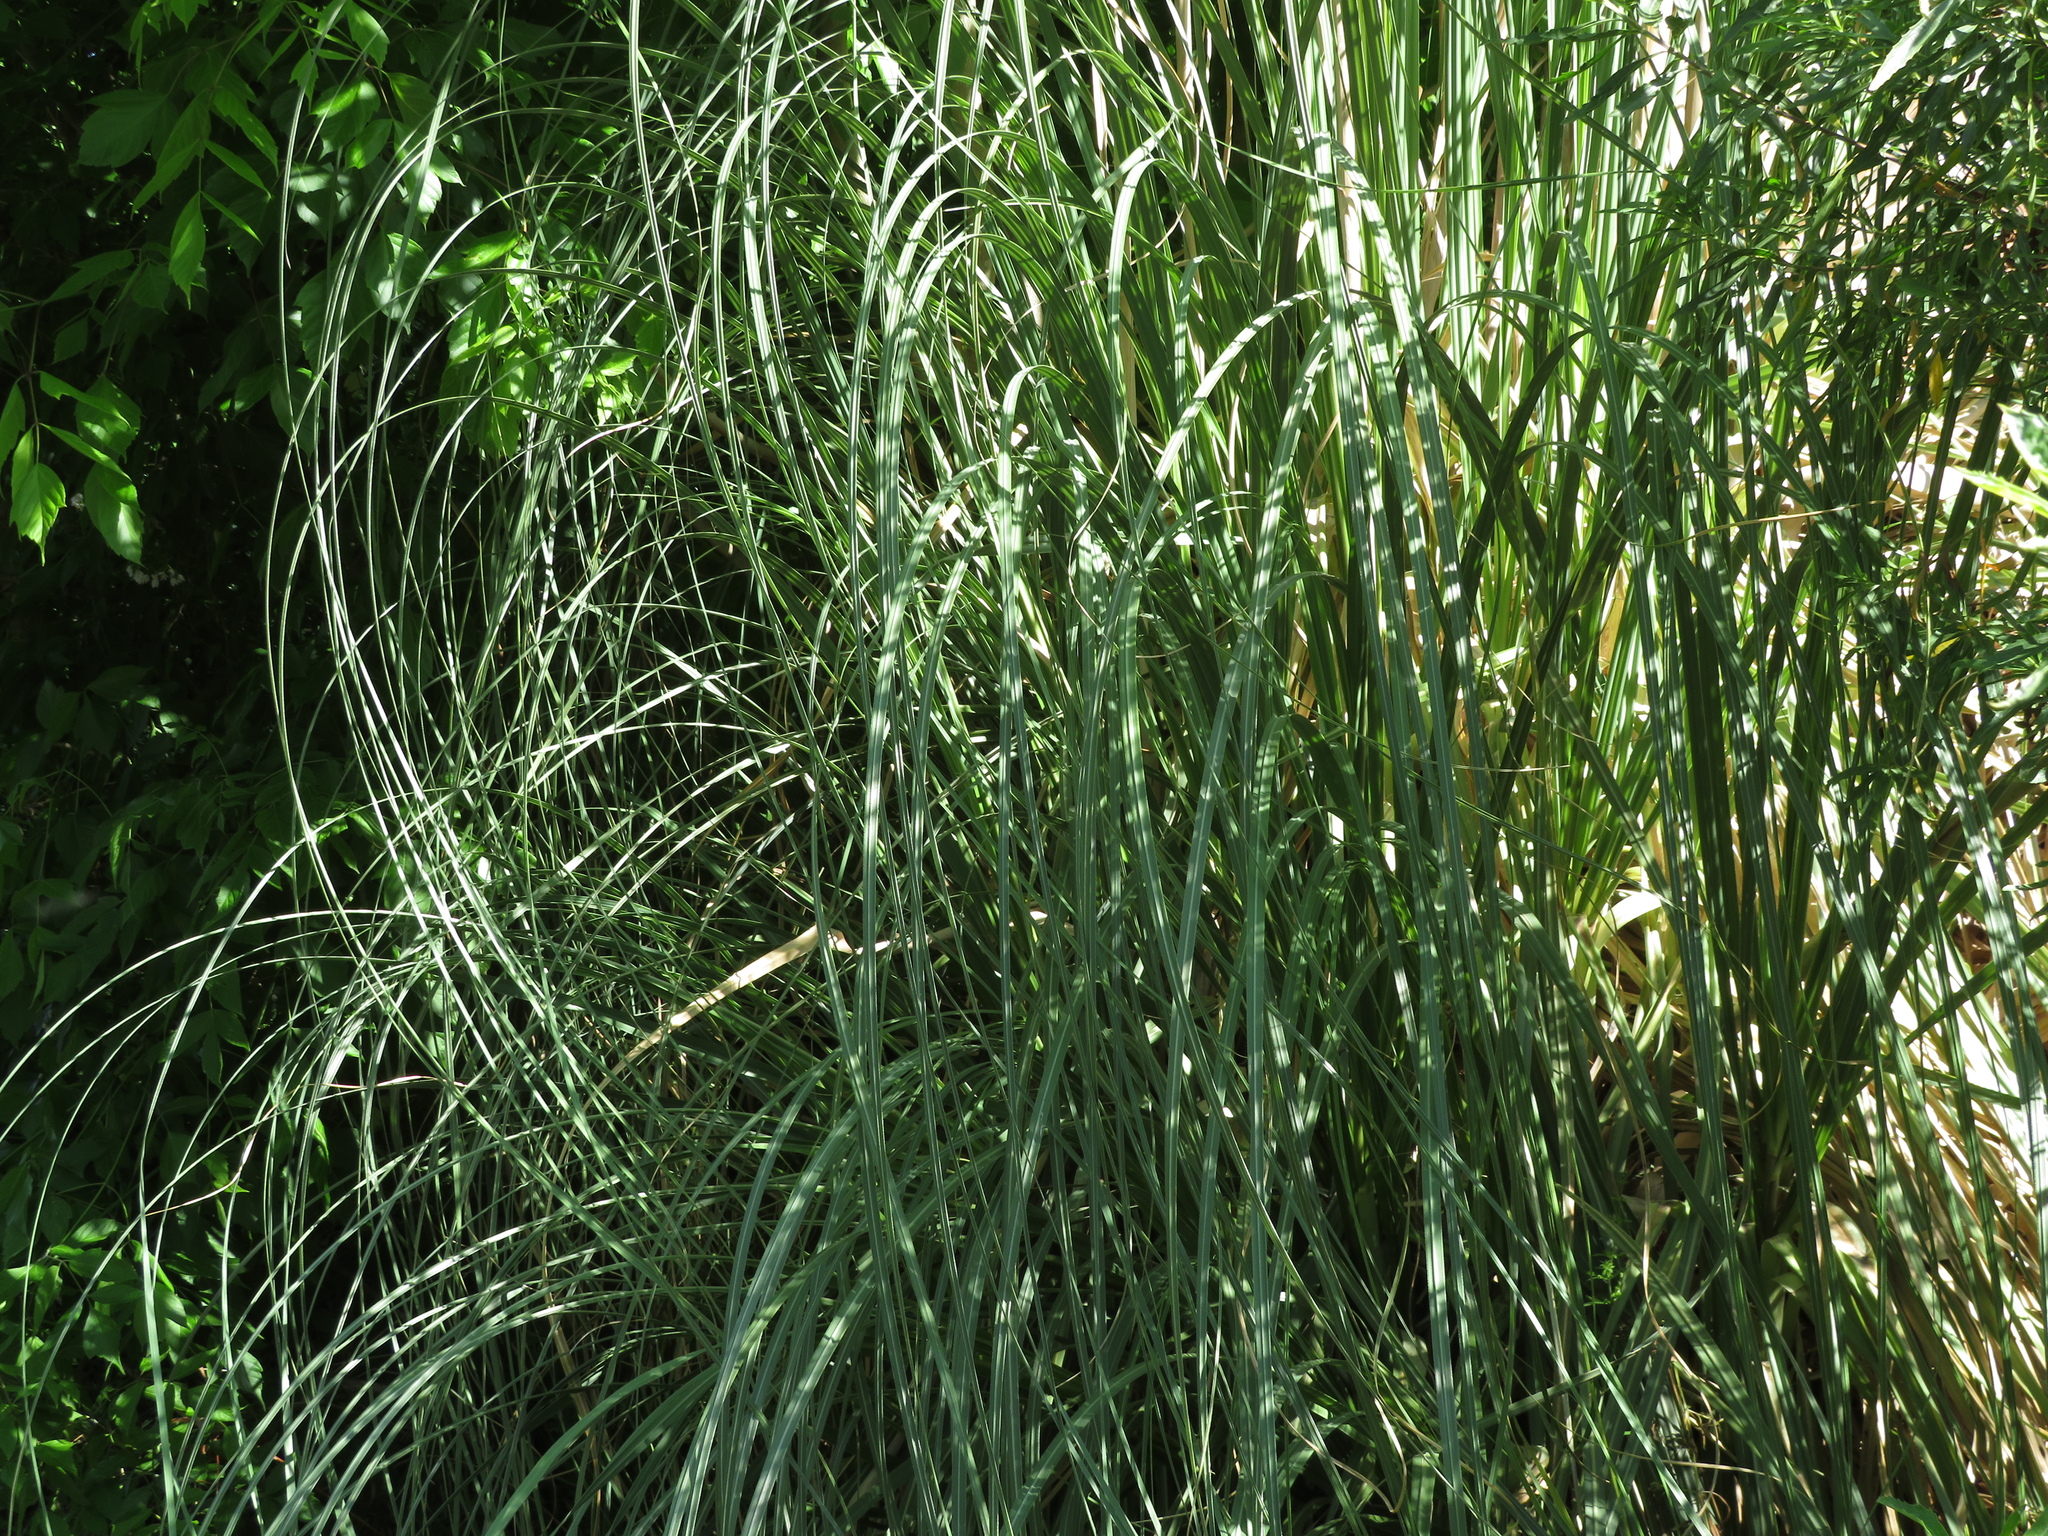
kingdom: Plantae
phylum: Tracheophyta
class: Liliopsida
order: Poales
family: Poaceae
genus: Cortaderia
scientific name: Cortaderia selloana
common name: Uruguayan pampas grass
